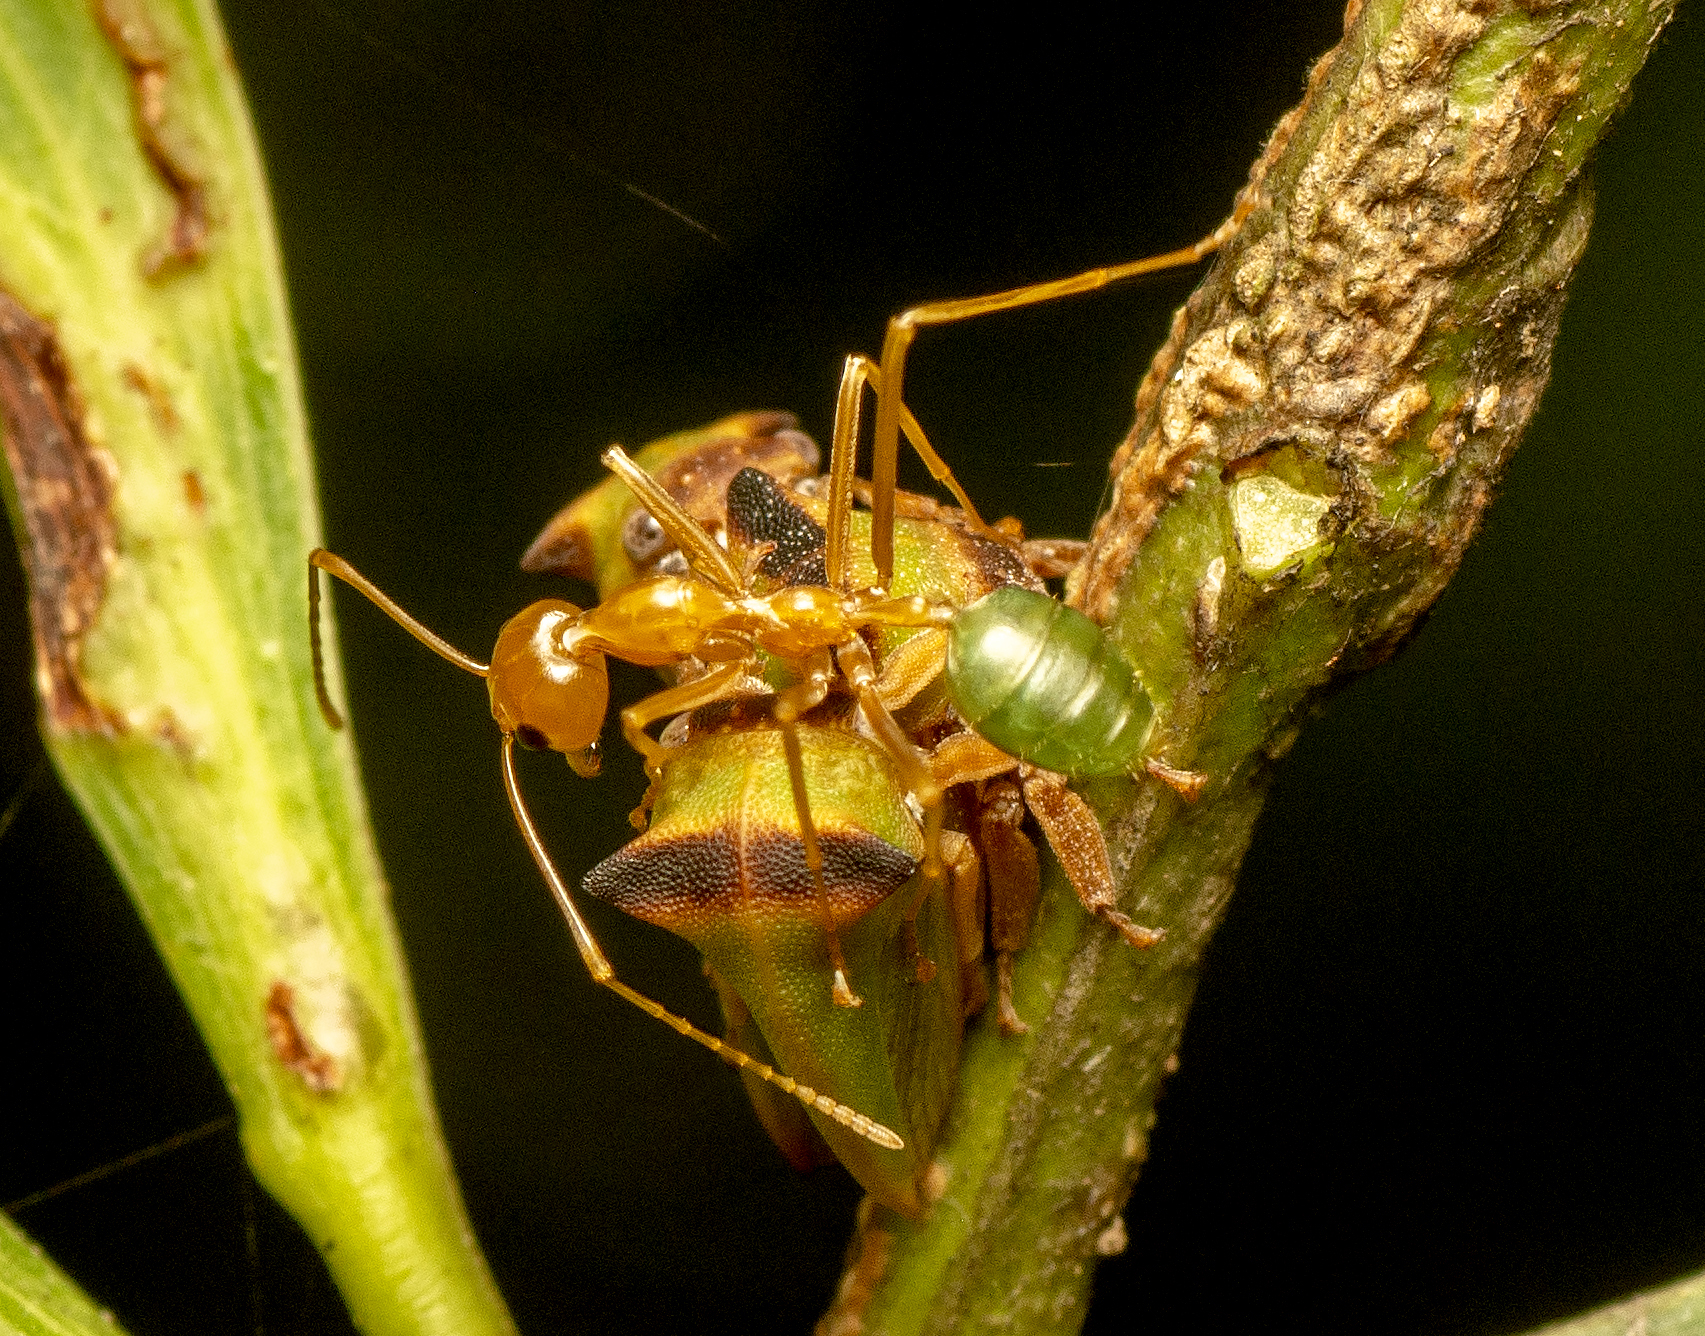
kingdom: Animalia
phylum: Arthropoda
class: Insecta
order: Hymenoptera
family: Formicidae
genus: Oecophylla
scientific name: Oecophylla smaragdina
